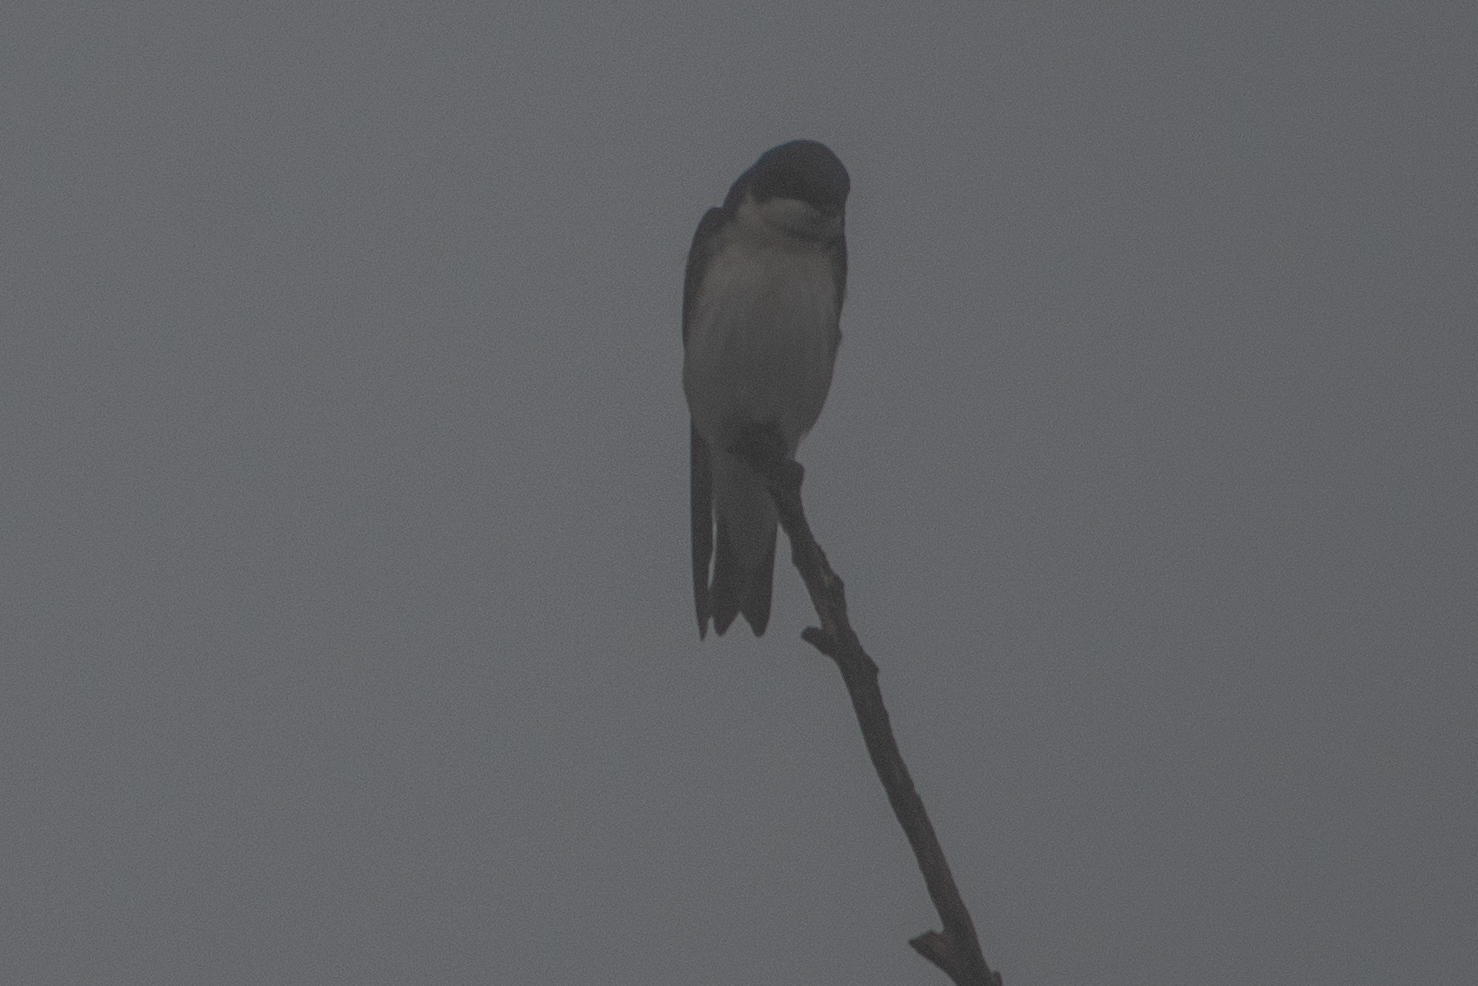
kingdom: Animalia
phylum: Chordata
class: Aves
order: Passeriformes
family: Hirundinidae
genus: Tachycineta
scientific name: Tachycineta bicolor
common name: Tree swallow
